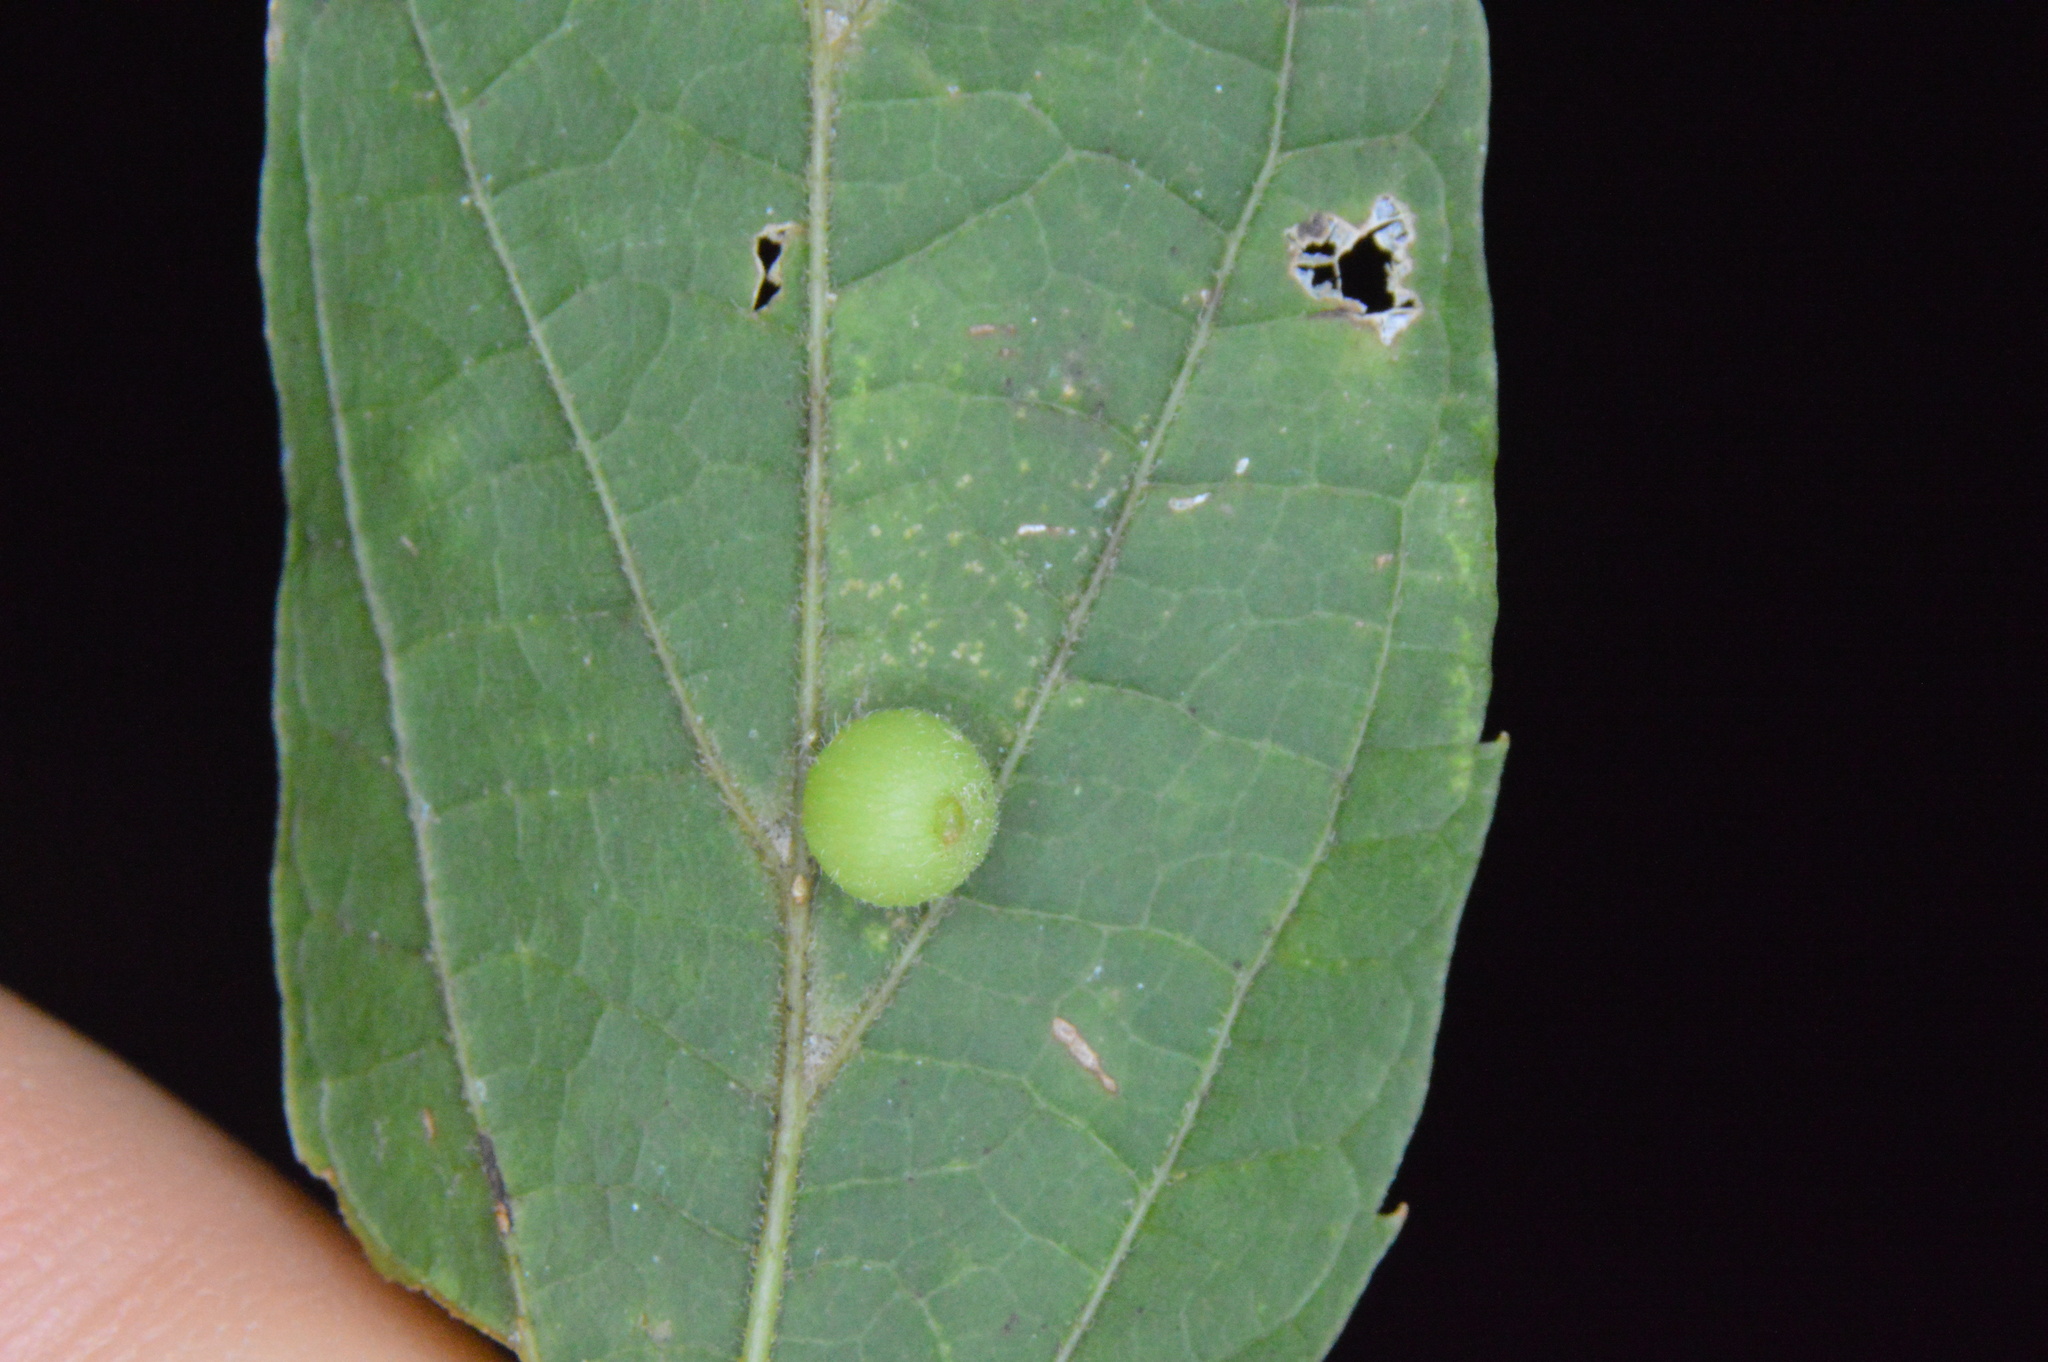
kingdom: Animalia
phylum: Arthropoda
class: Insecta
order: Diptera
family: Cecidomyiidae
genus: Celticecis
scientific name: Celticecis globosa
